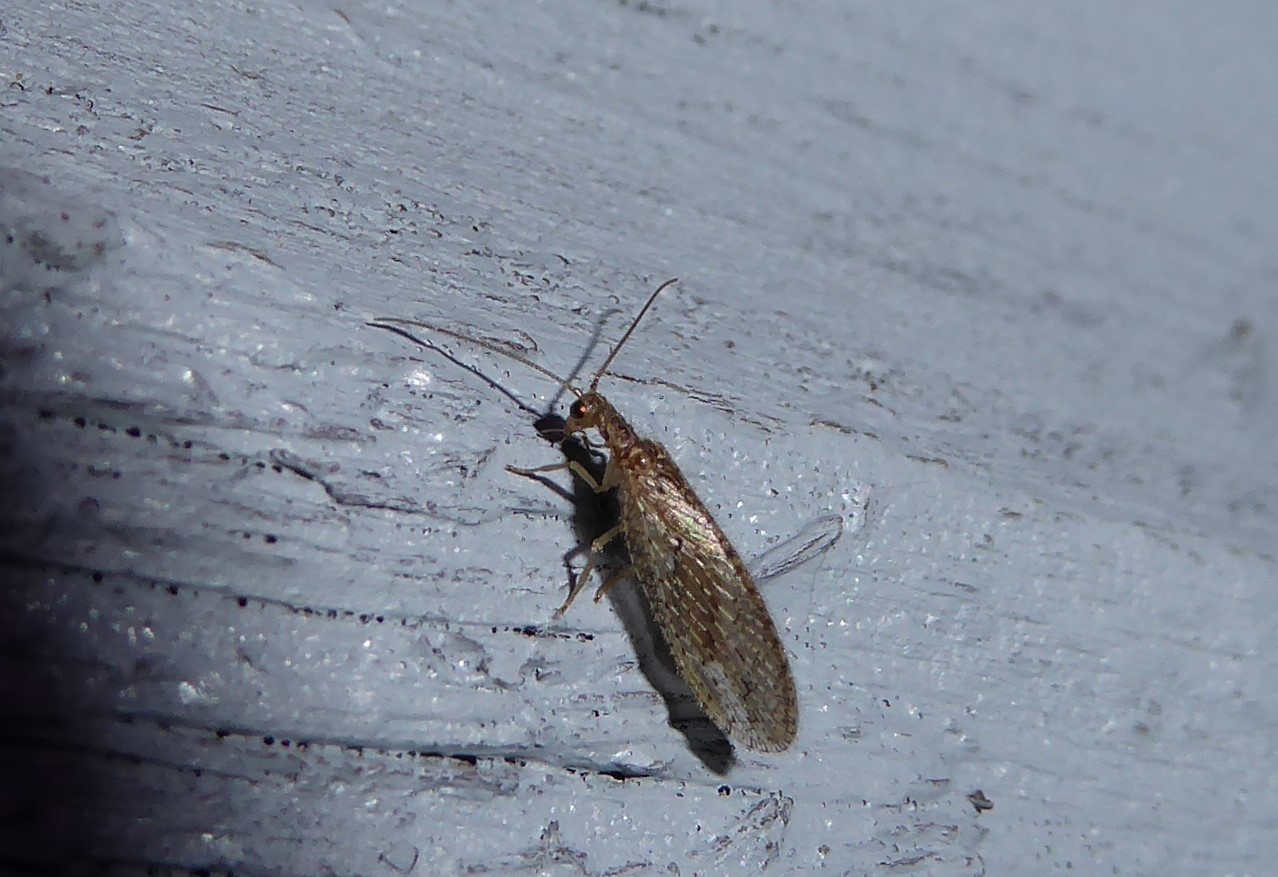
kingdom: Animalia
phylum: Arthropoda
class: Insecta
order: Neuroptera
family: Hemerobiidae
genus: Micromus
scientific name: Micromus tasmaniae
